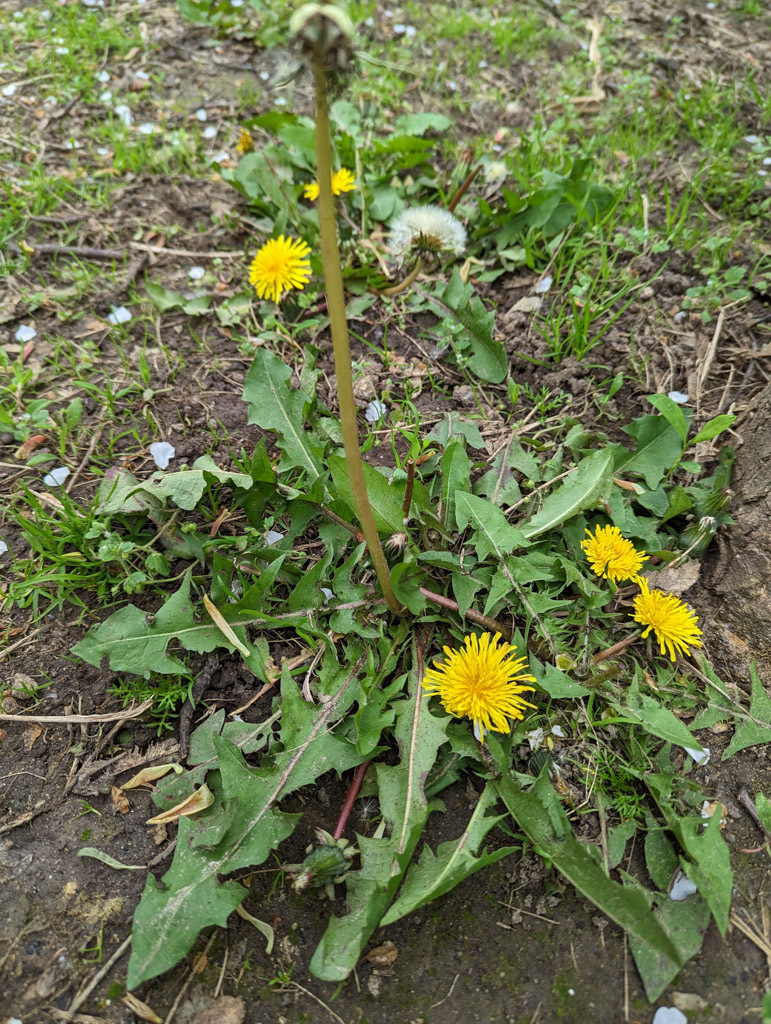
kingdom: Plantae
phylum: Tracheophyta
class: Magnoliopsida
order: Asterales
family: Asteraceae
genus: Taraxacum
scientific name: Taraxacum officinale
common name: Common dandelion
